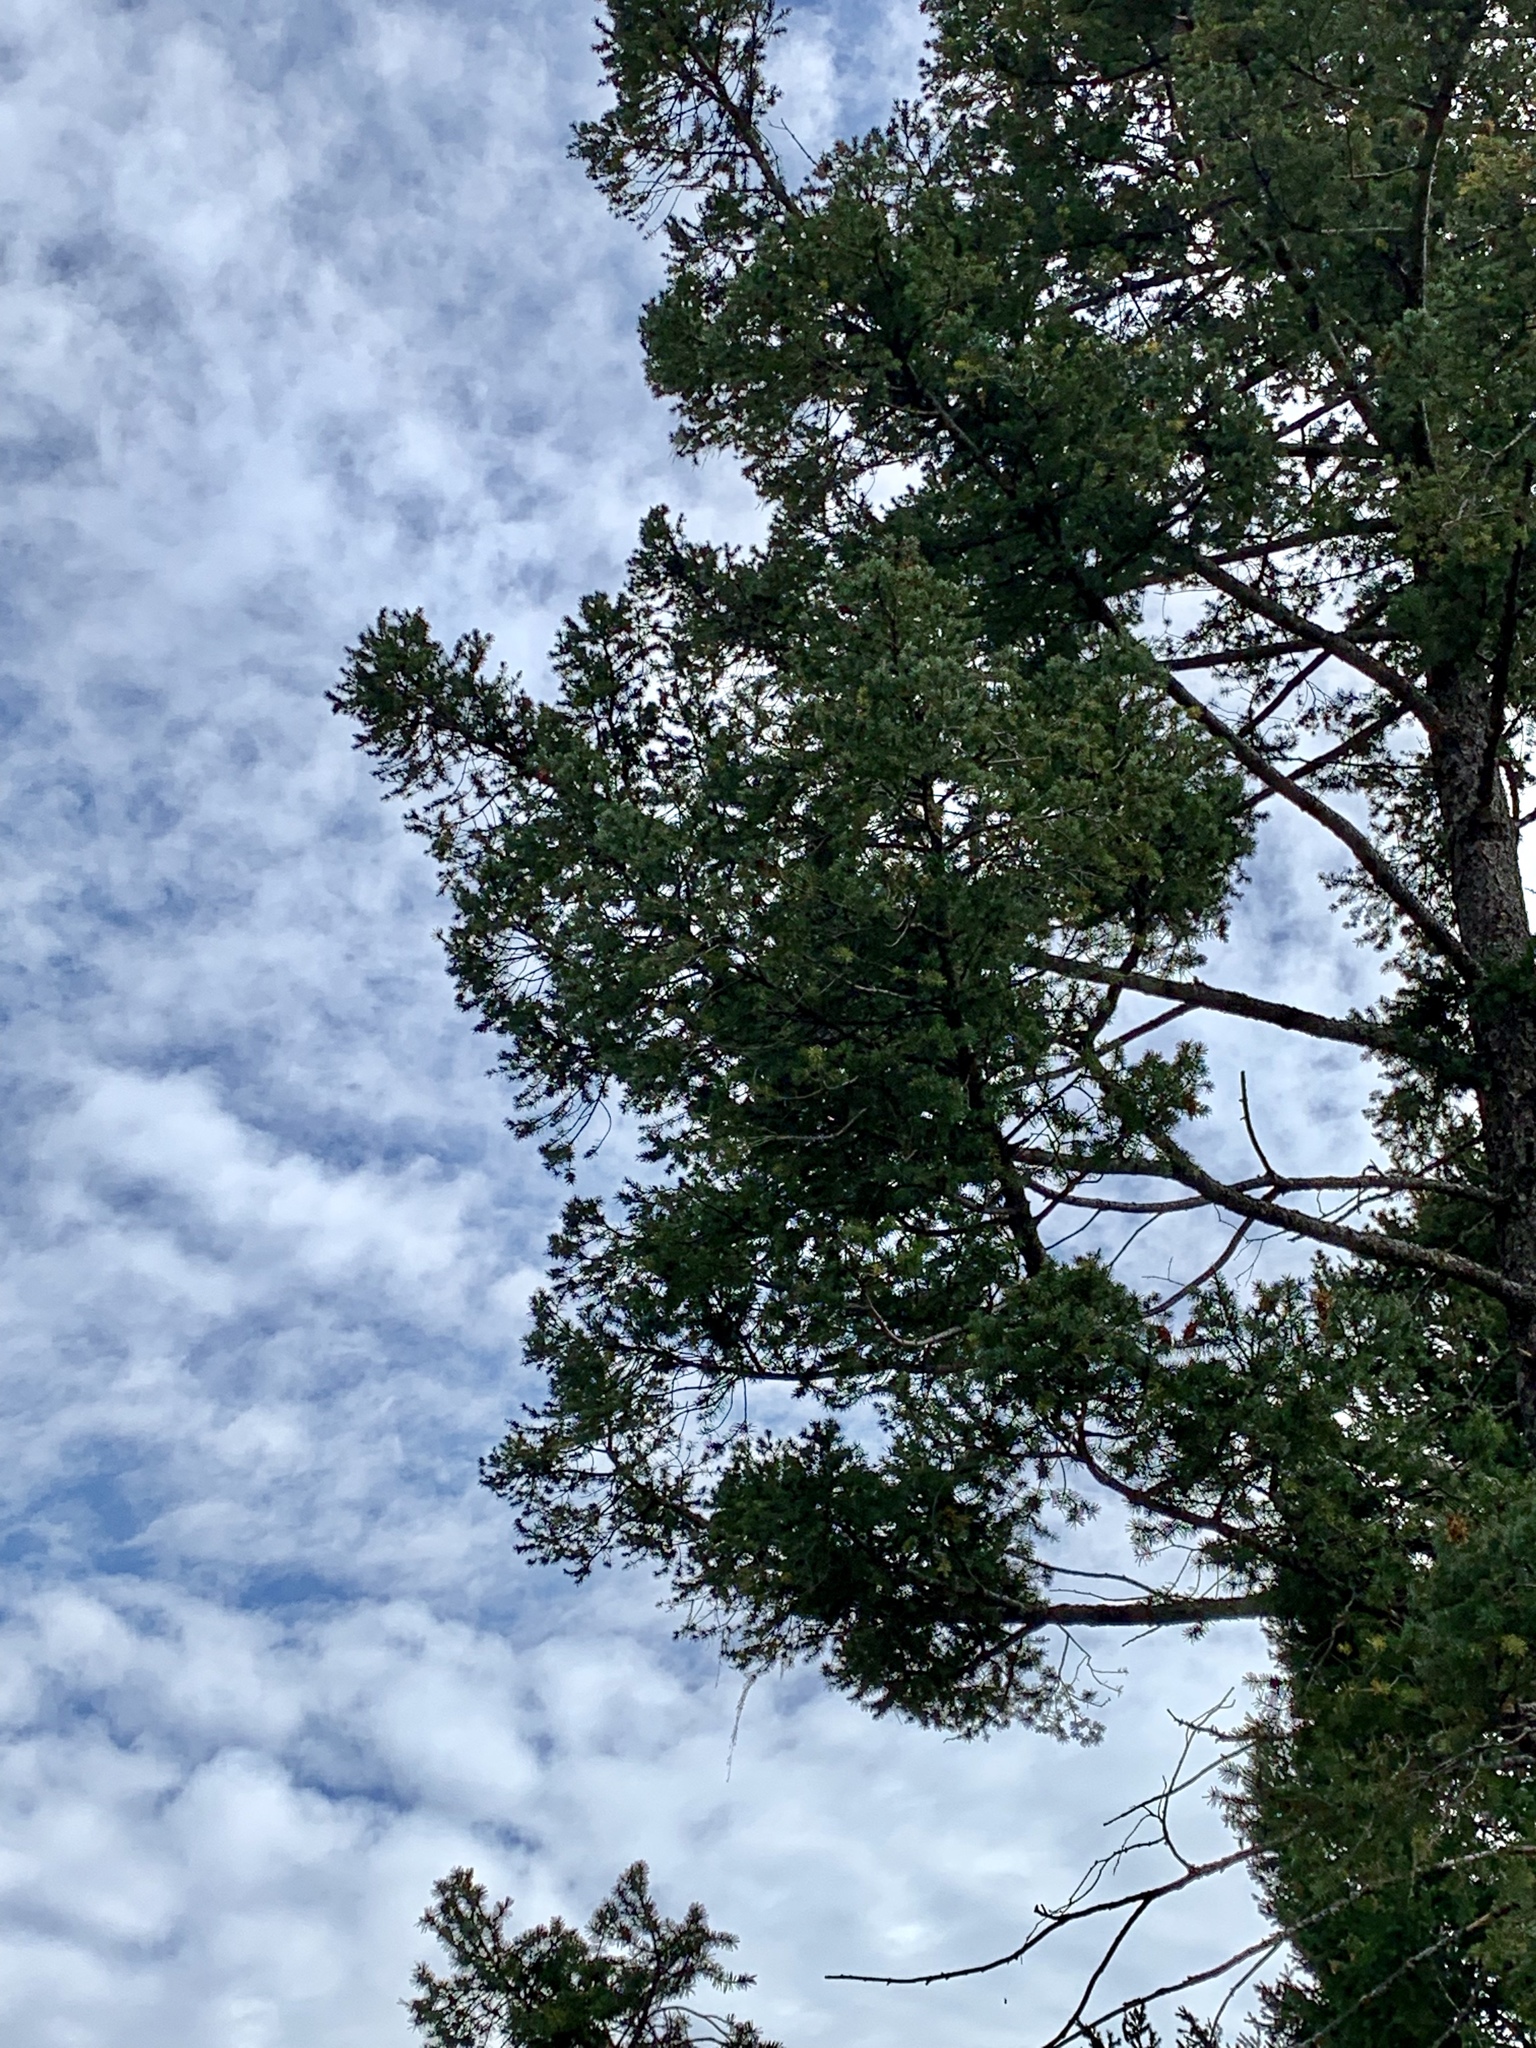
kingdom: Plantae
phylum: Tracheophyta
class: Pinopsida
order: Pinales
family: Pinaceae
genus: Pseudotsuga
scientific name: Pseudotsuga menziesii
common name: Douglas fir
